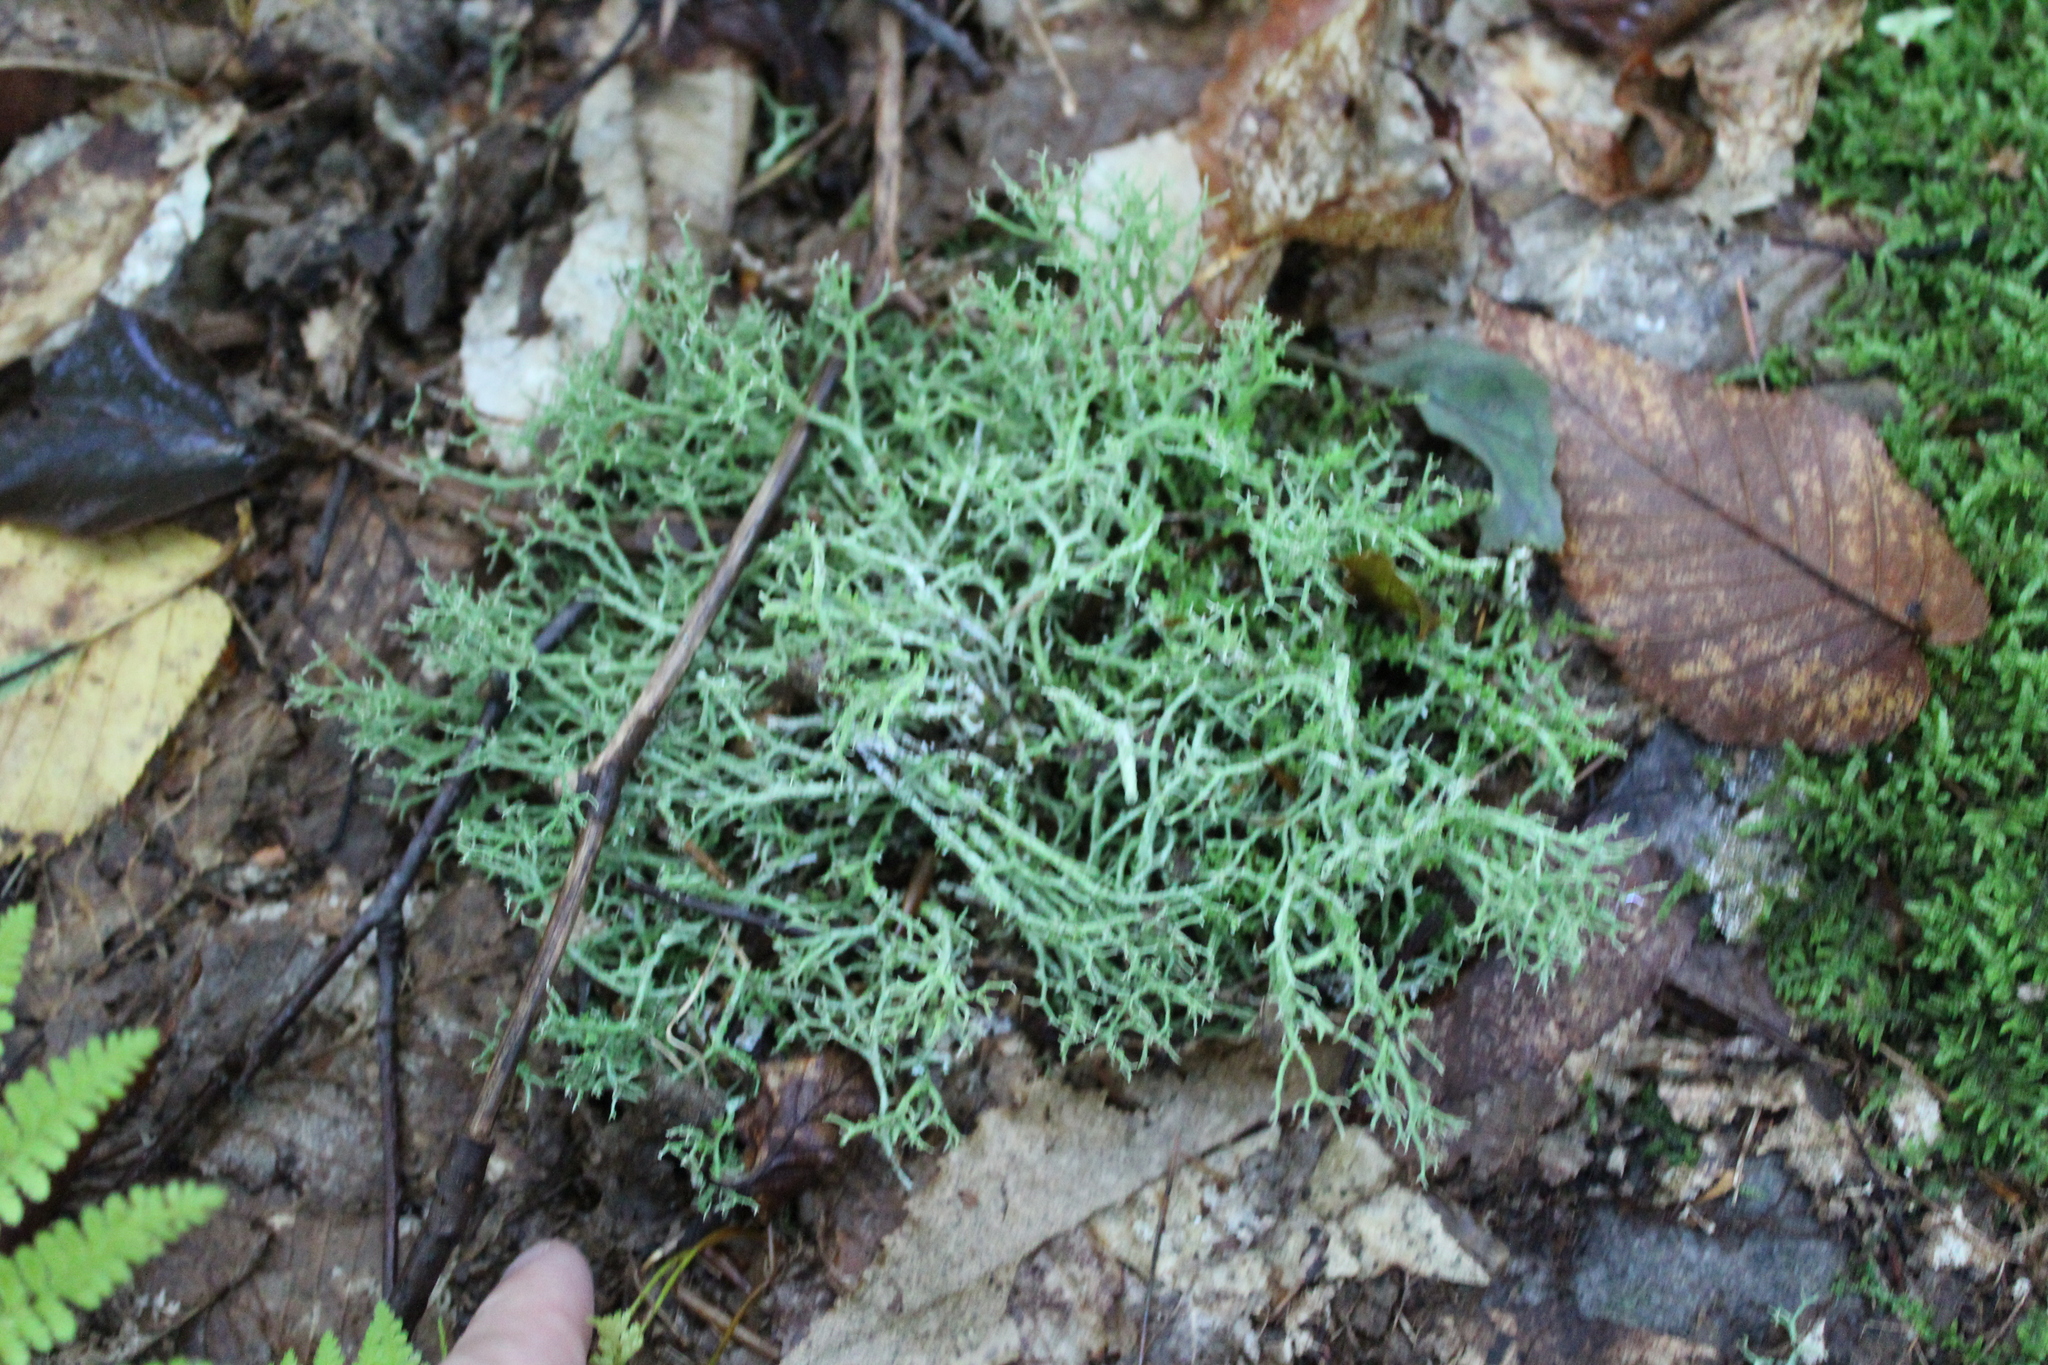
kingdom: Fungi
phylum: Ascomycota
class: Lecanoromycetes
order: Lecanorales
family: Cladoniaceae
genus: Cladonia
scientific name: Cladonia furcata
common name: Many-forked cladonia
